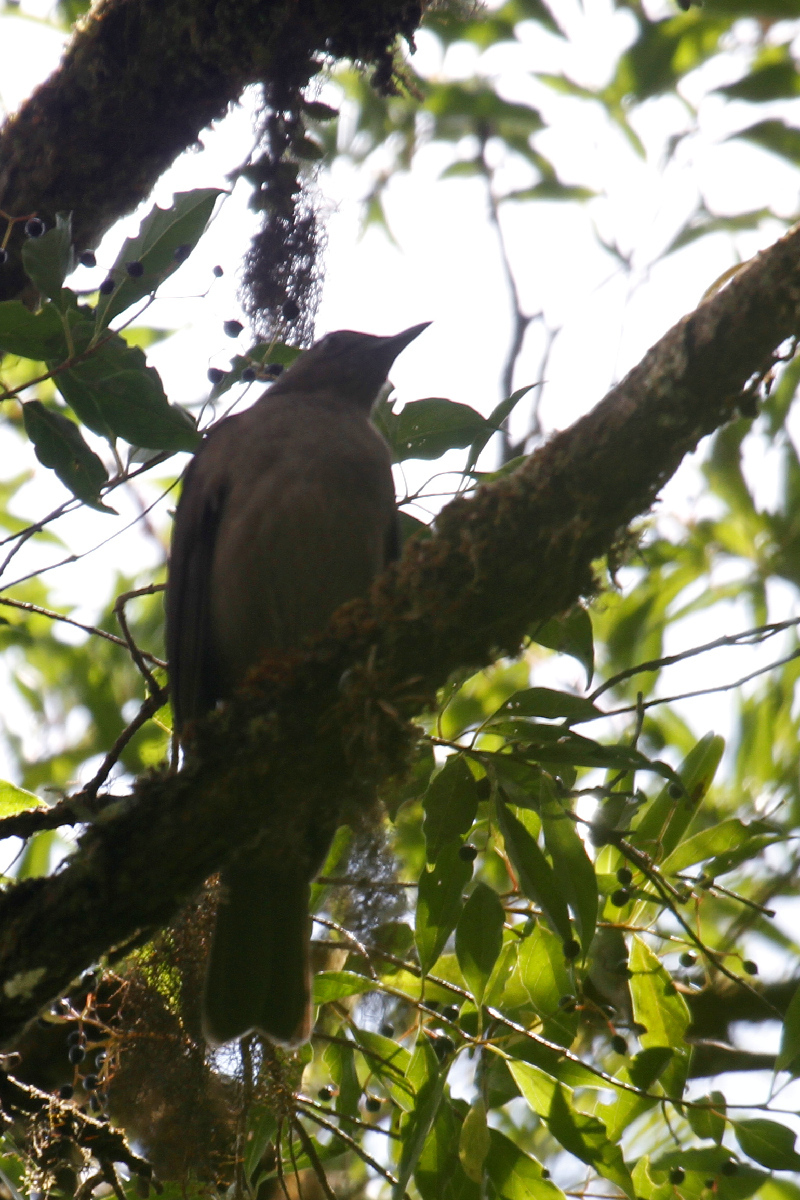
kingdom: Animalia
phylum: Chordata
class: Aves
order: Passeriformes
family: Turdidae
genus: Turdus
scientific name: Turdus plebejus
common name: Mountain thrush
